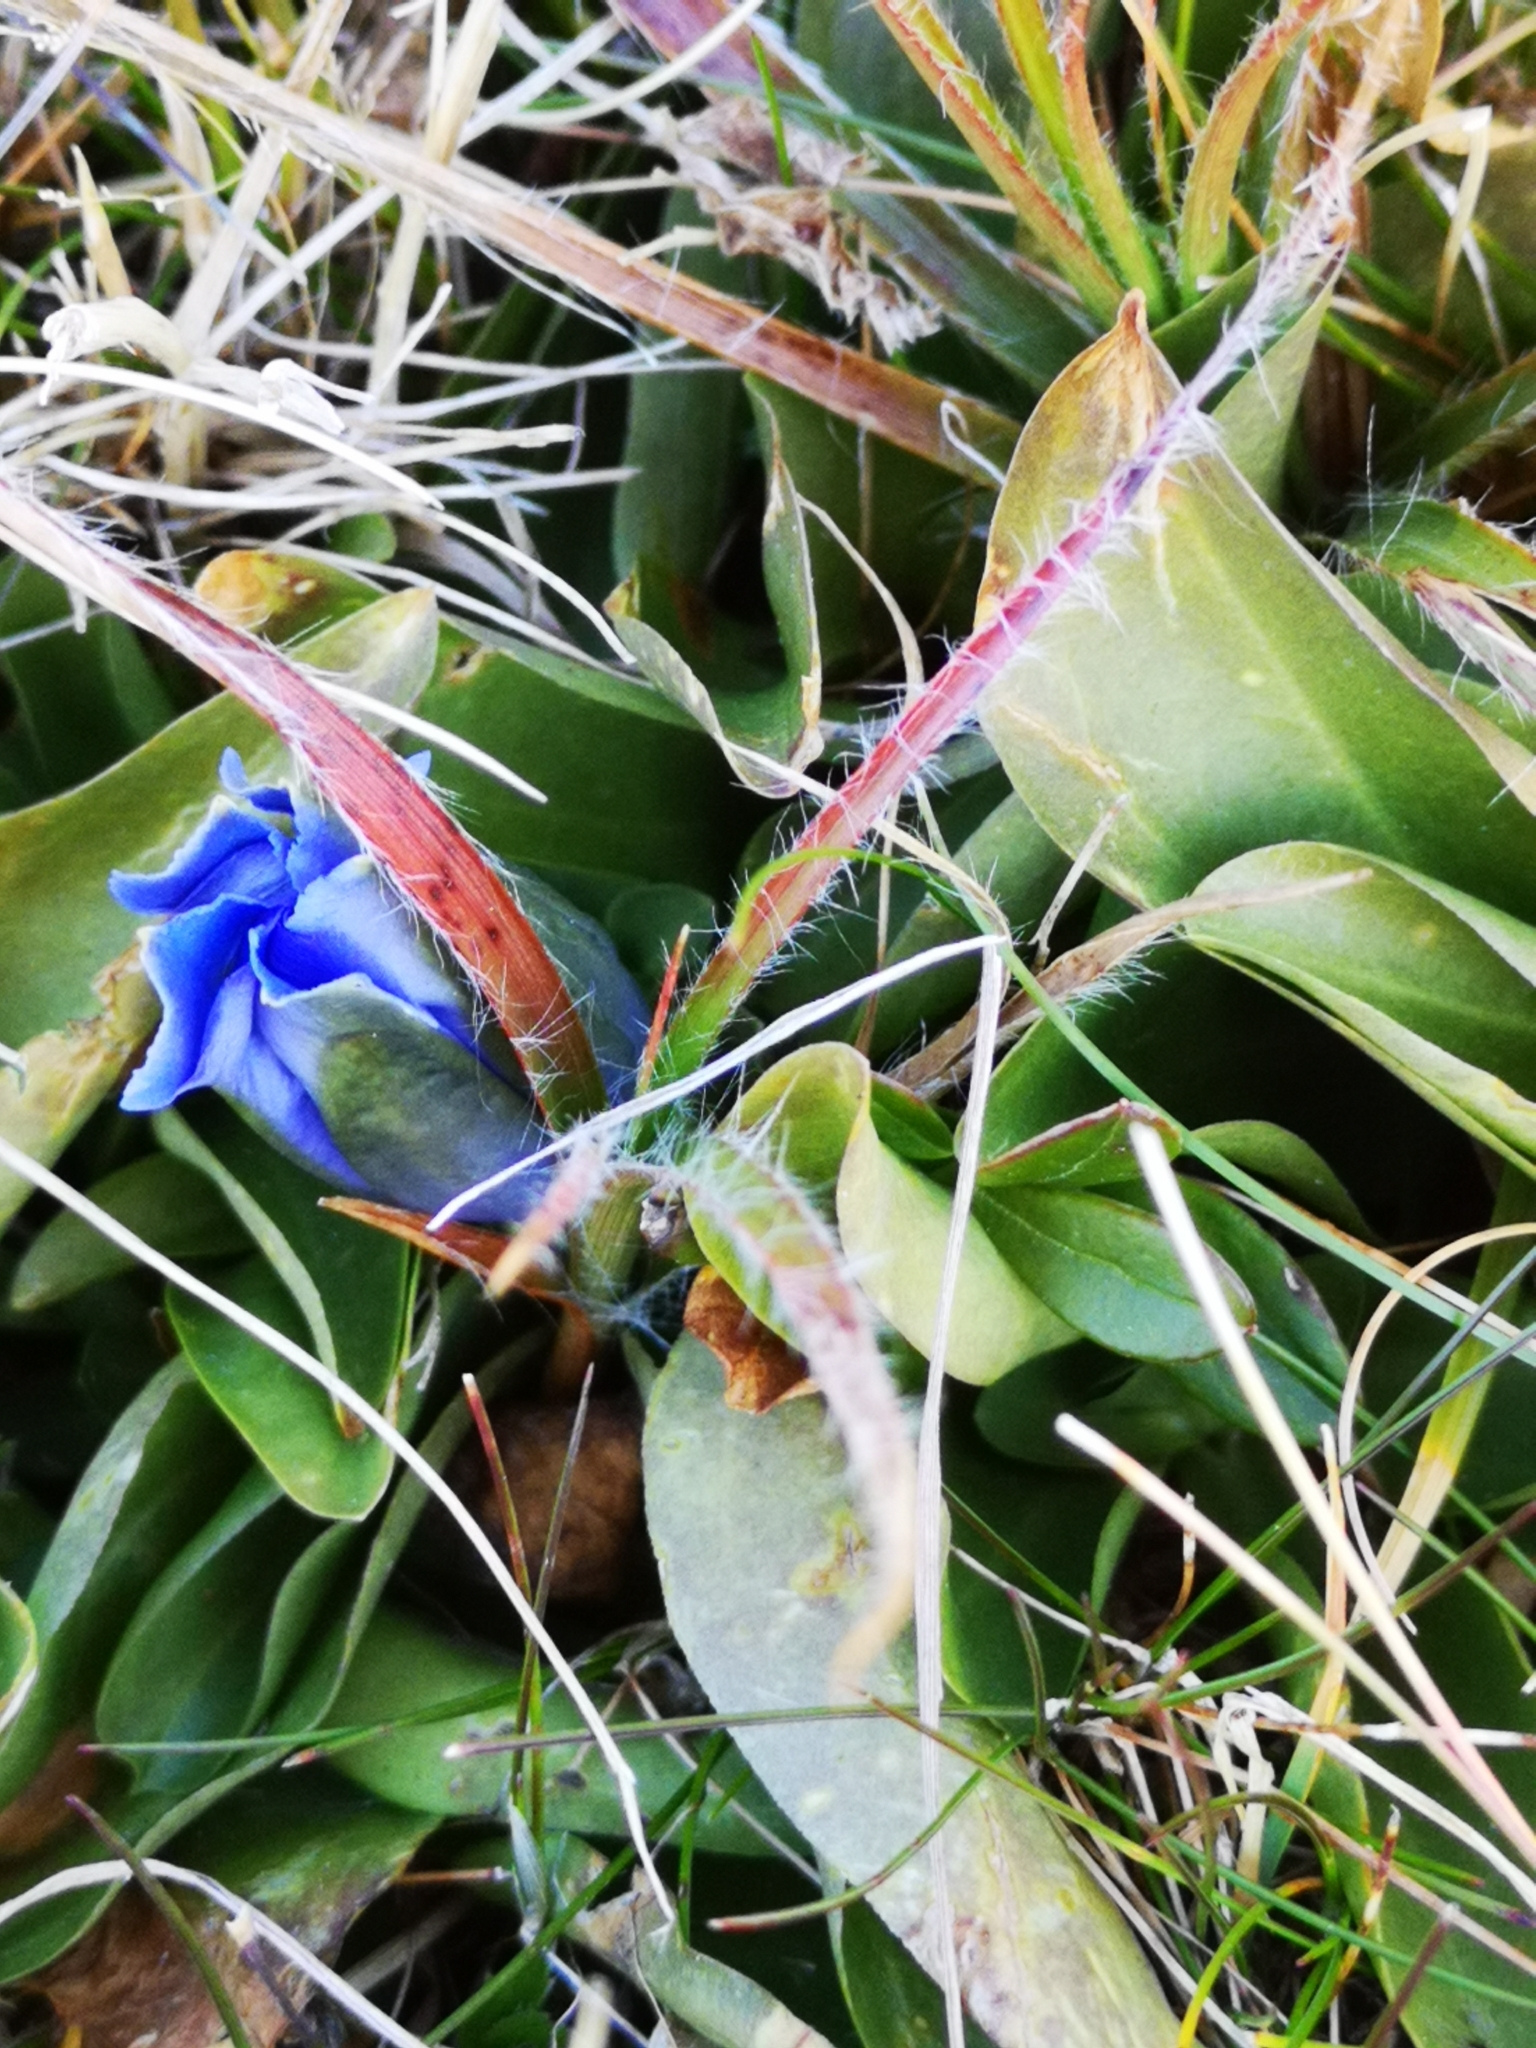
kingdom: Plantae
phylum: Tracheophyta
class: Magnoliopsida
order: Gentianales
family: Gentianaceae
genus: Gentiana
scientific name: Gentiana acaulis
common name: Trumpet gentian
